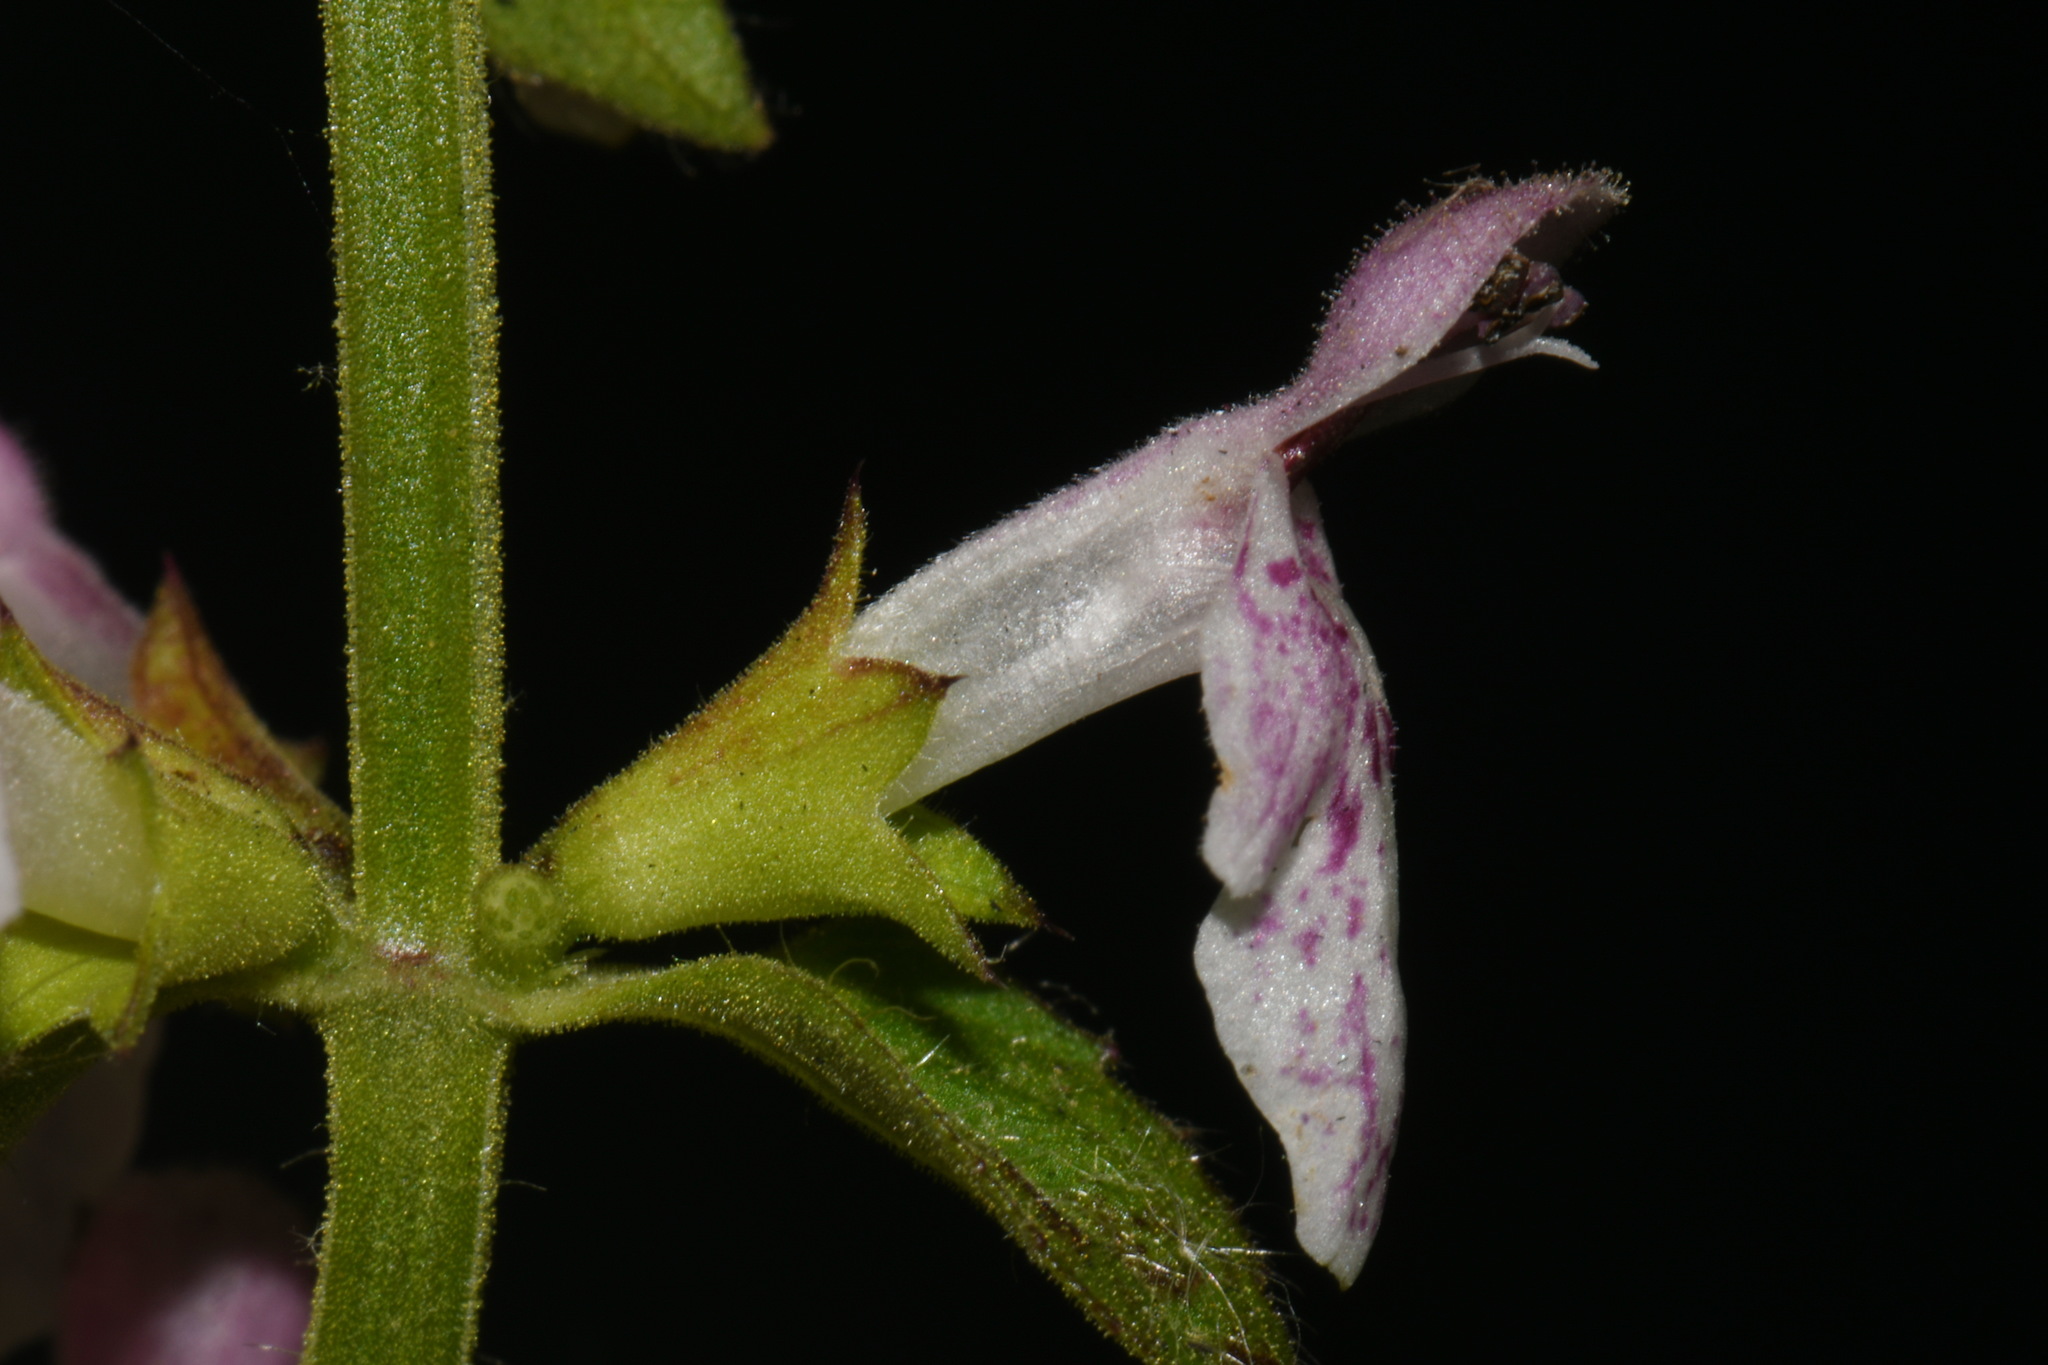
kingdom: Plantae
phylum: Tracheophyta
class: Magnoliopsida
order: Lamiales
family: Lamiaceae
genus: Stachys
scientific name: Stachys glandulosissima
